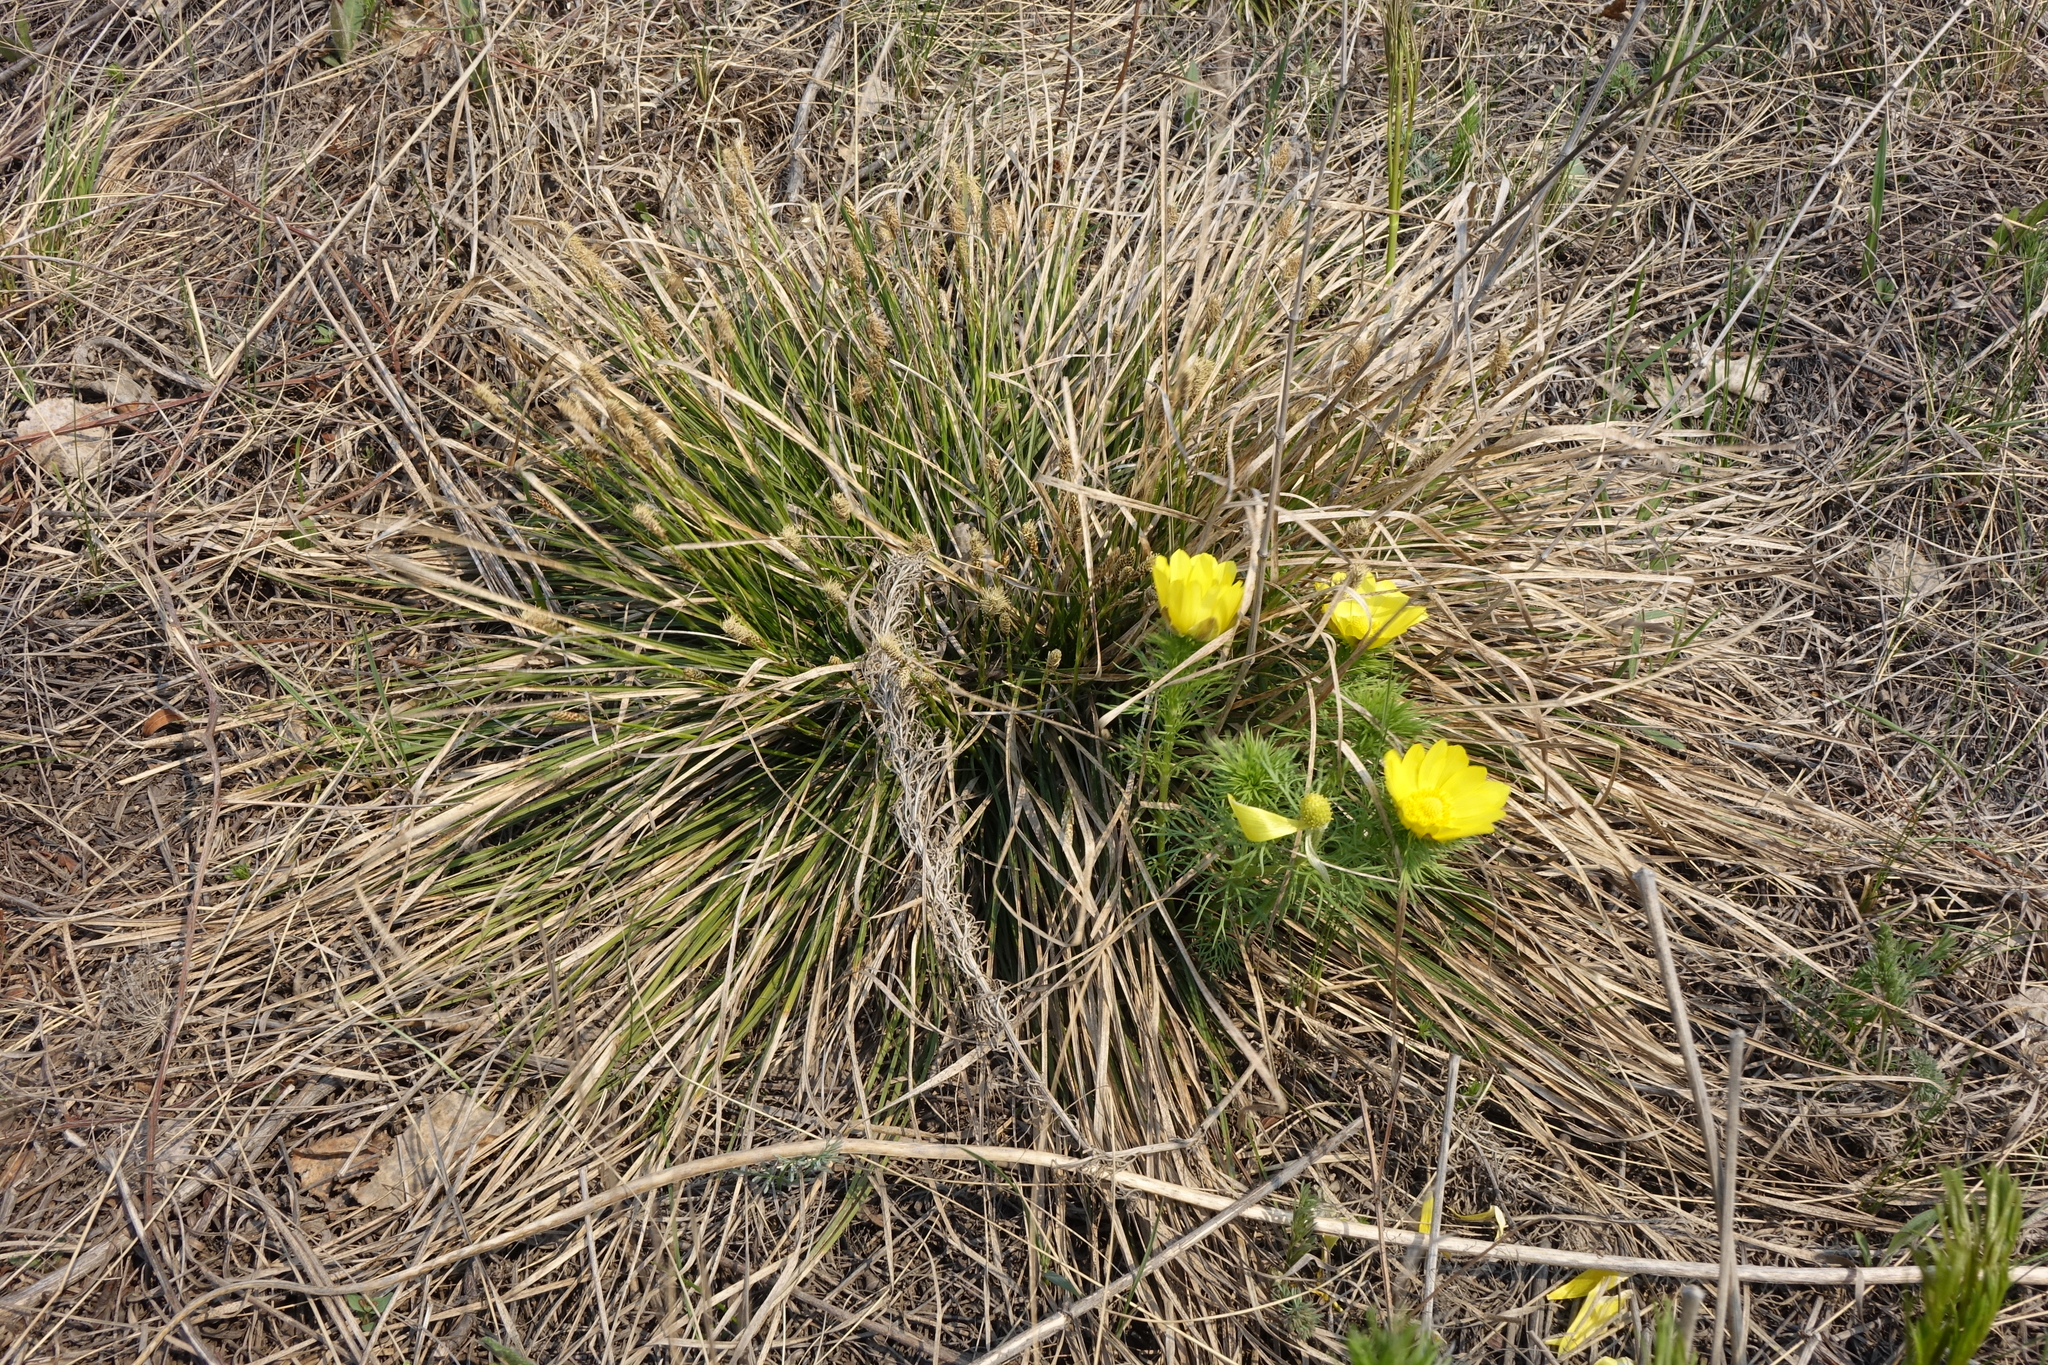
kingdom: Plantae
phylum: Tracheophyta
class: Magnoliopsida
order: Ranunculales
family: Ranunculaceae
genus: Adonis
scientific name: Adonis vernalis
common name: Yellow pheasants-eye
